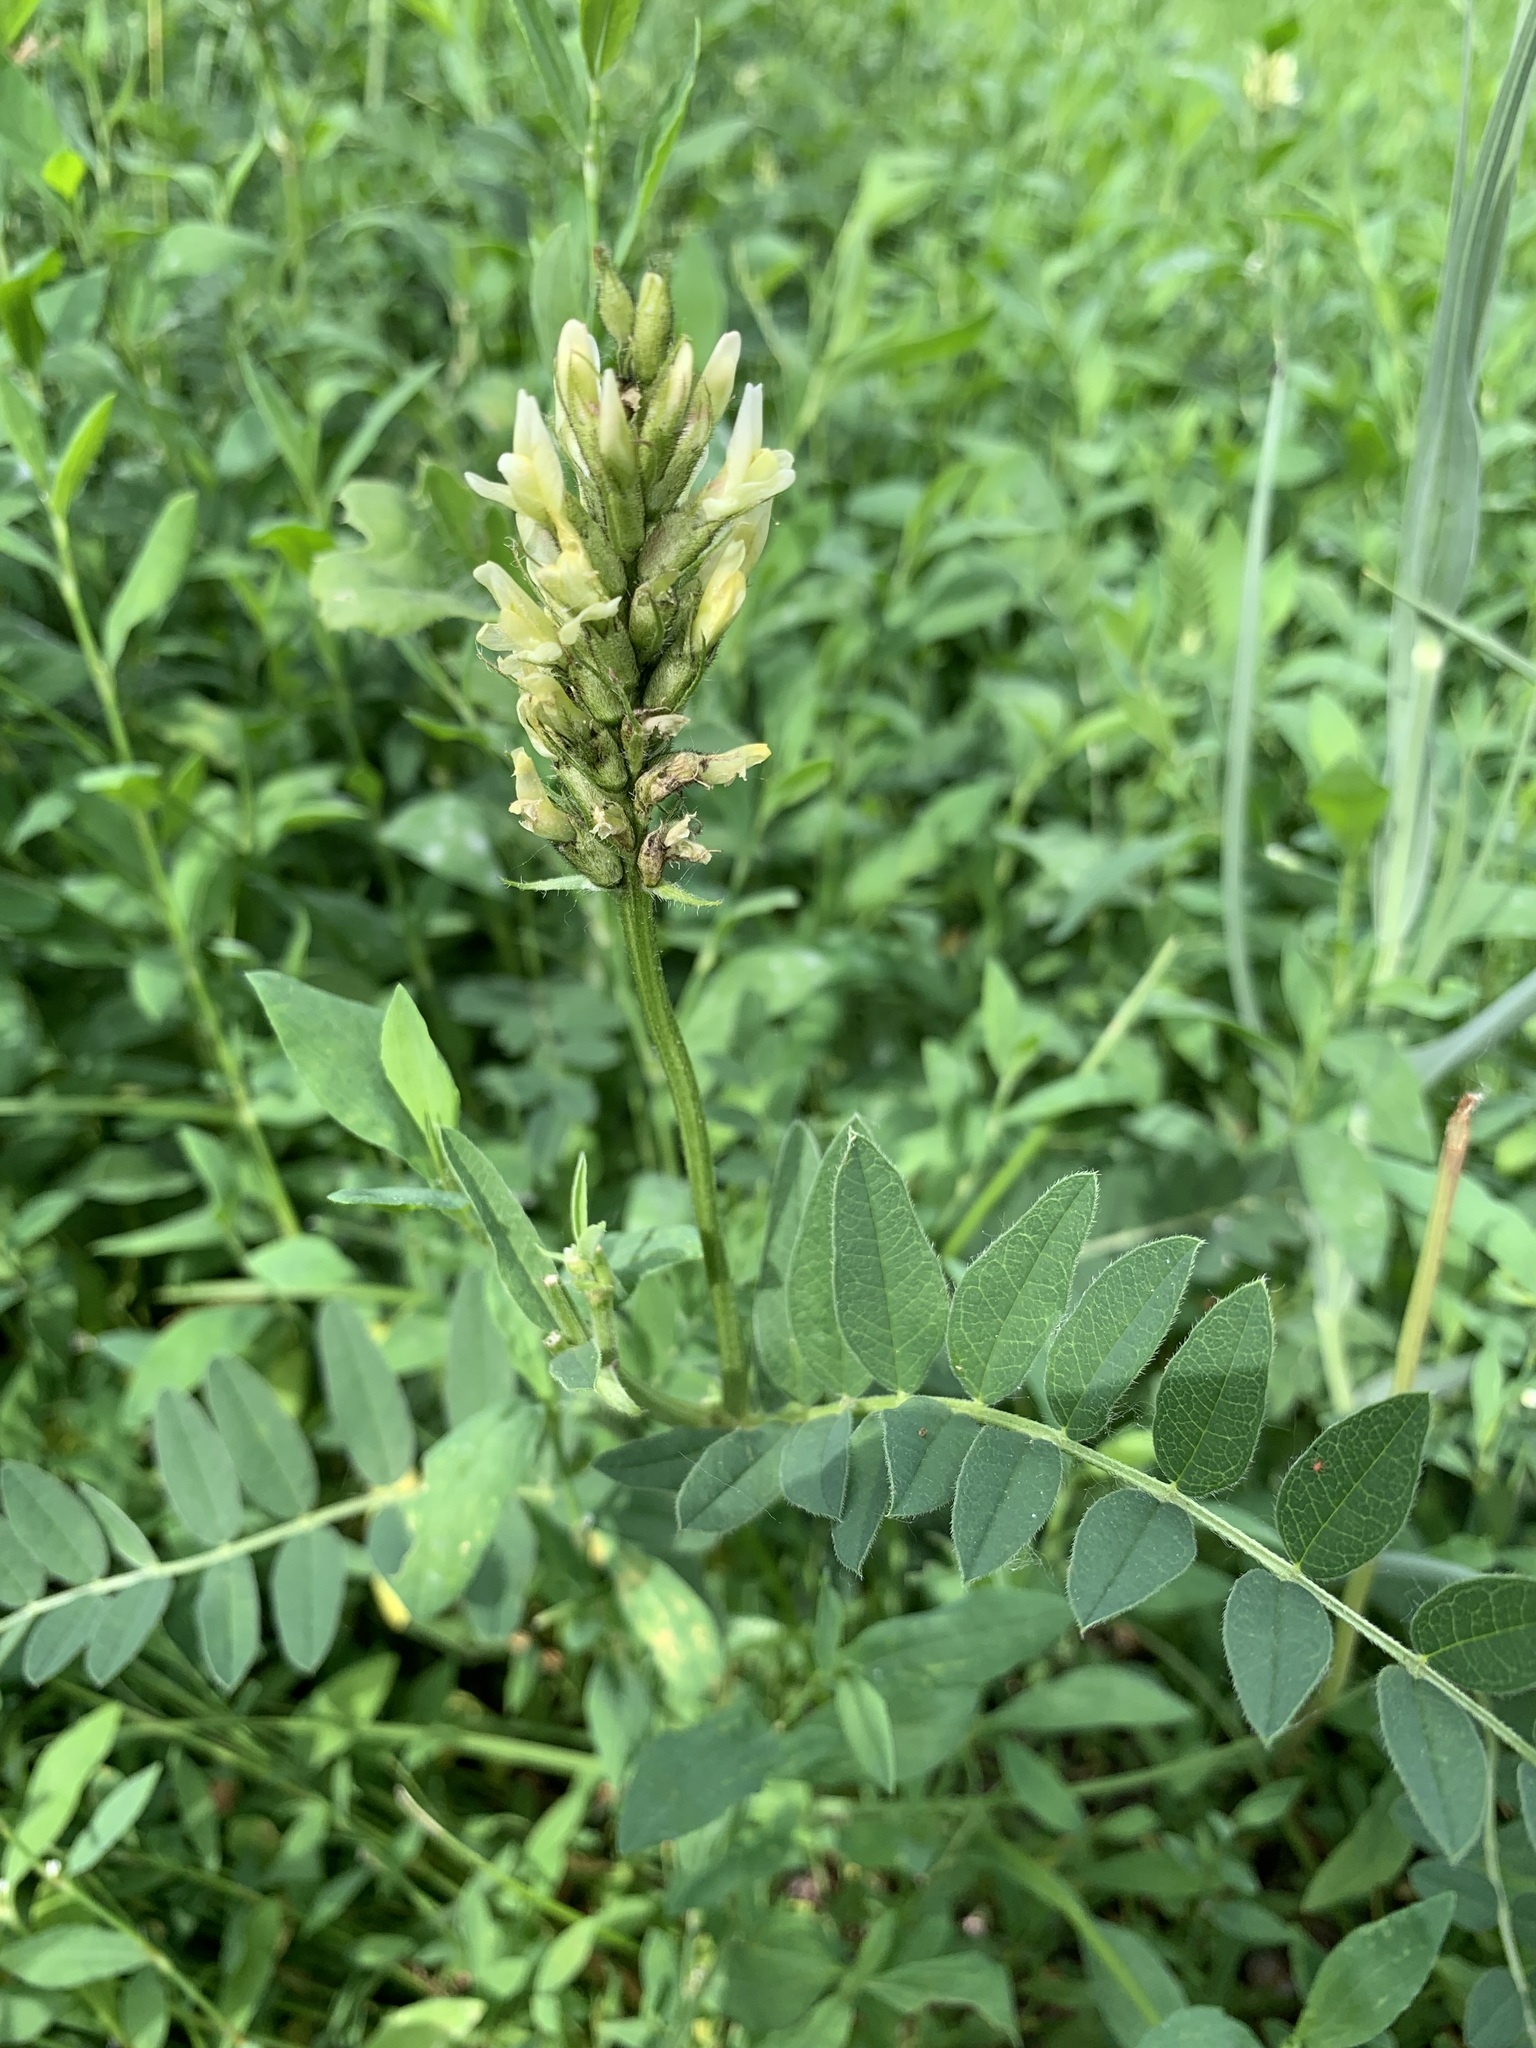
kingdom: Plantae
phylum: Tracheophyta
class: Magnoliopsida
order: Fabales
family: Fabaceae
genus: Astragalus
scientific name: Astragalus cicer
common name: Chick-pea milk-vetch
